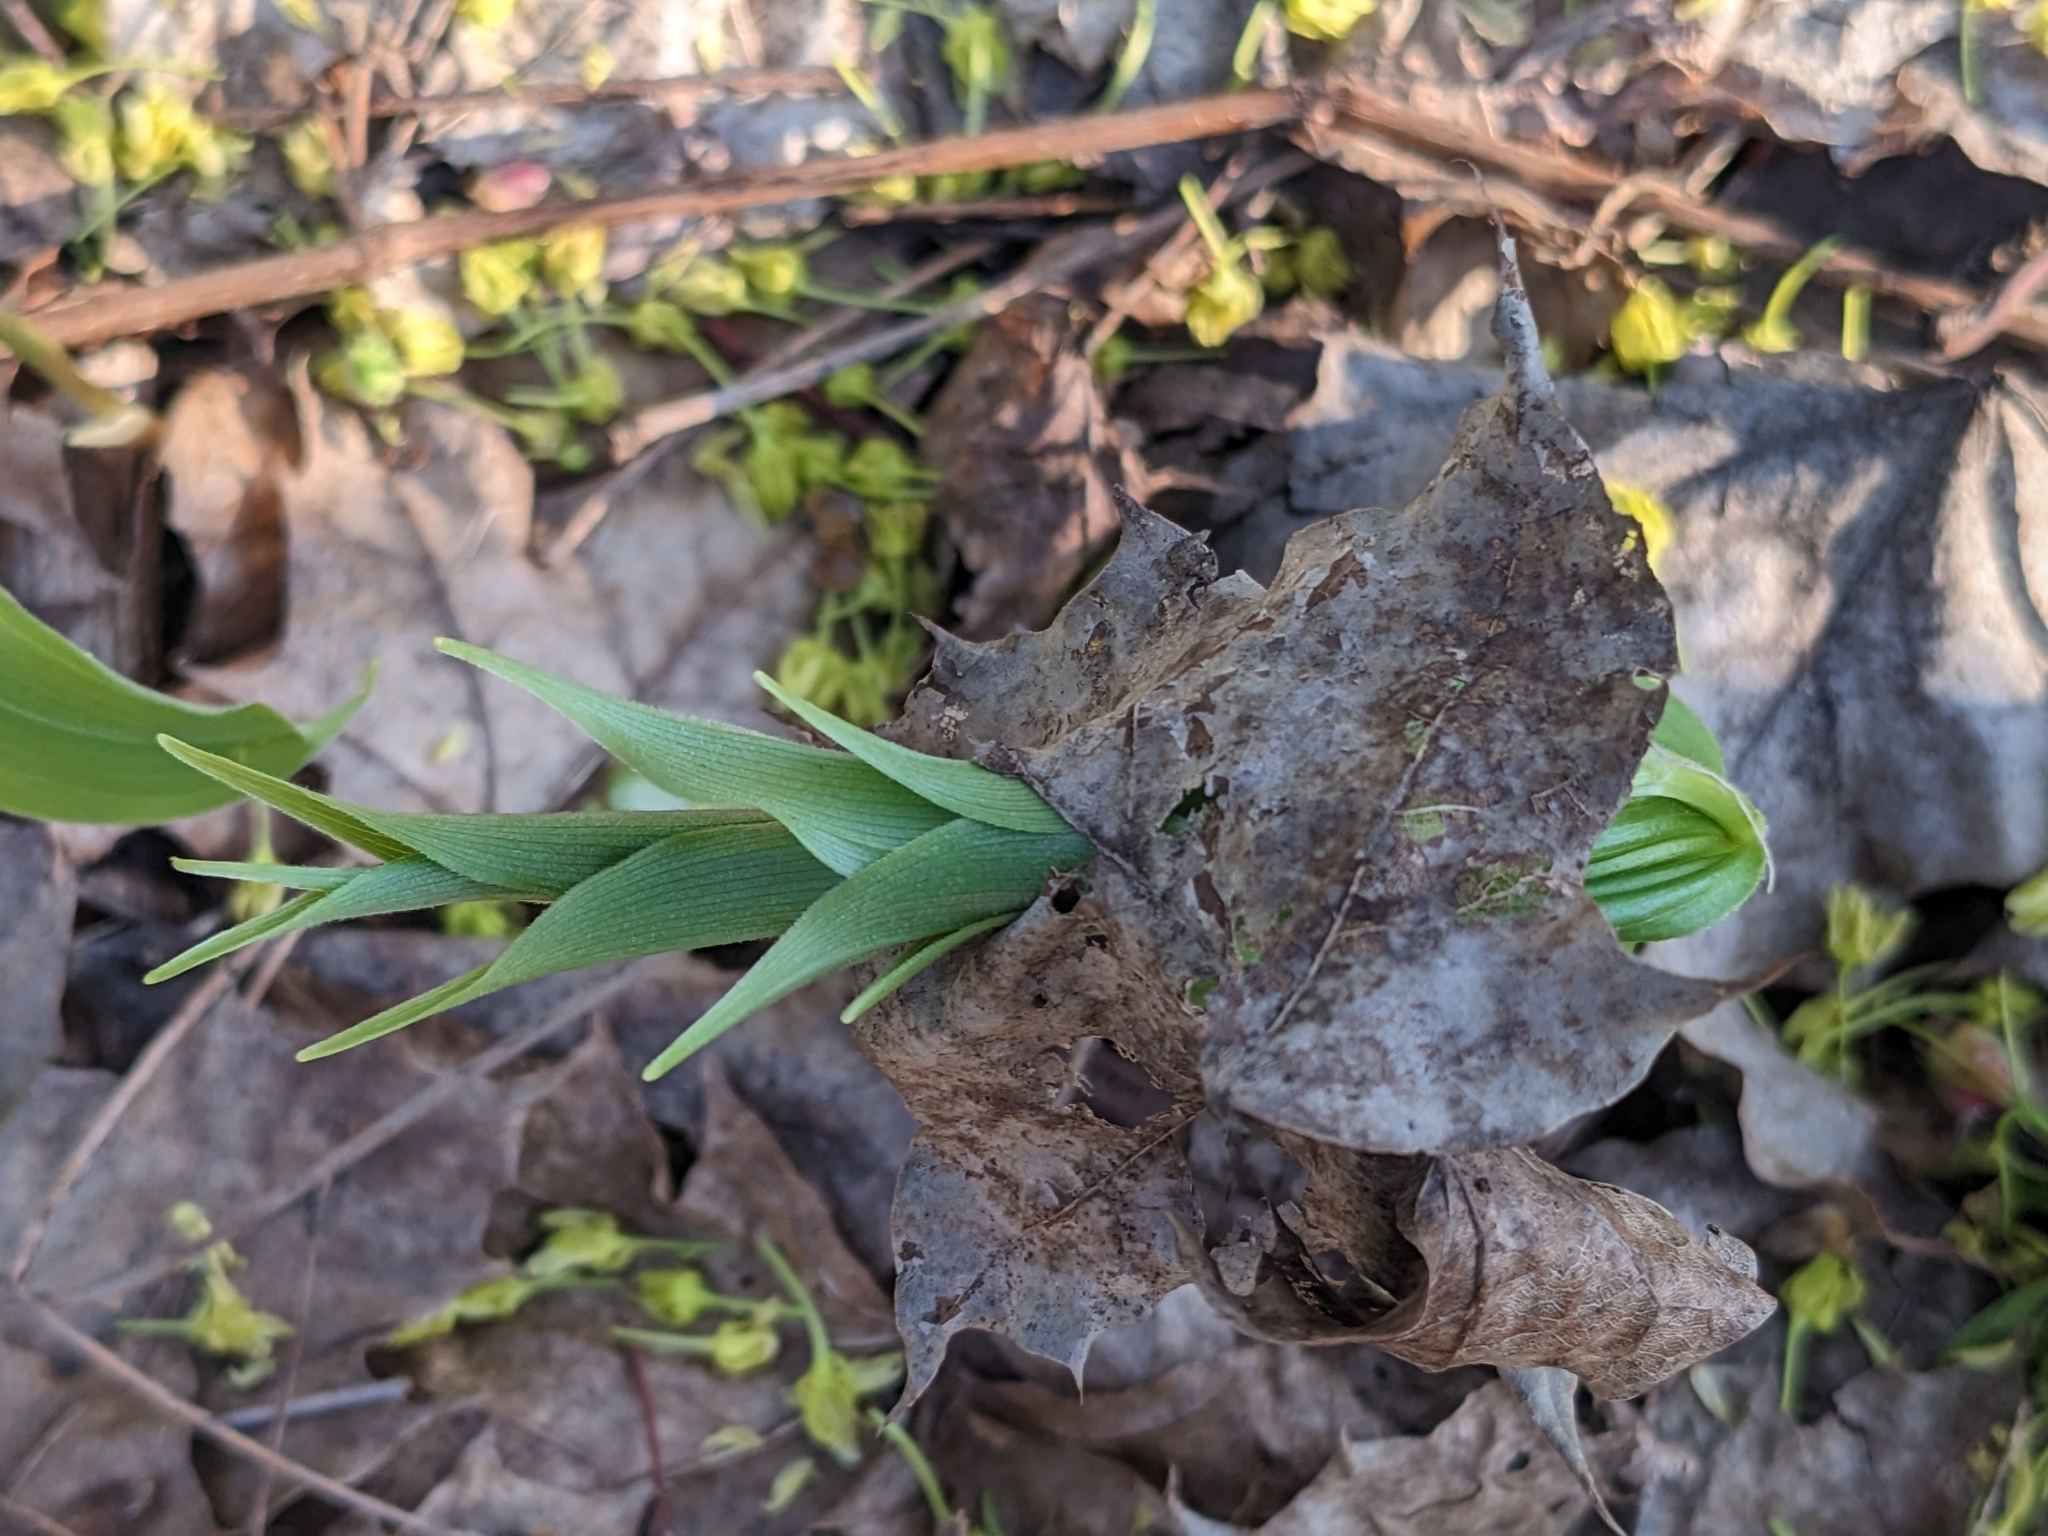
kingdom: Plantae
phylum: Tracheophyta
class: Liliopsida
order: Asparagales
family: Asparagaceae
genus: Maianthemum
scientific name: Maianthemum racemosum
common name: False spikenard
